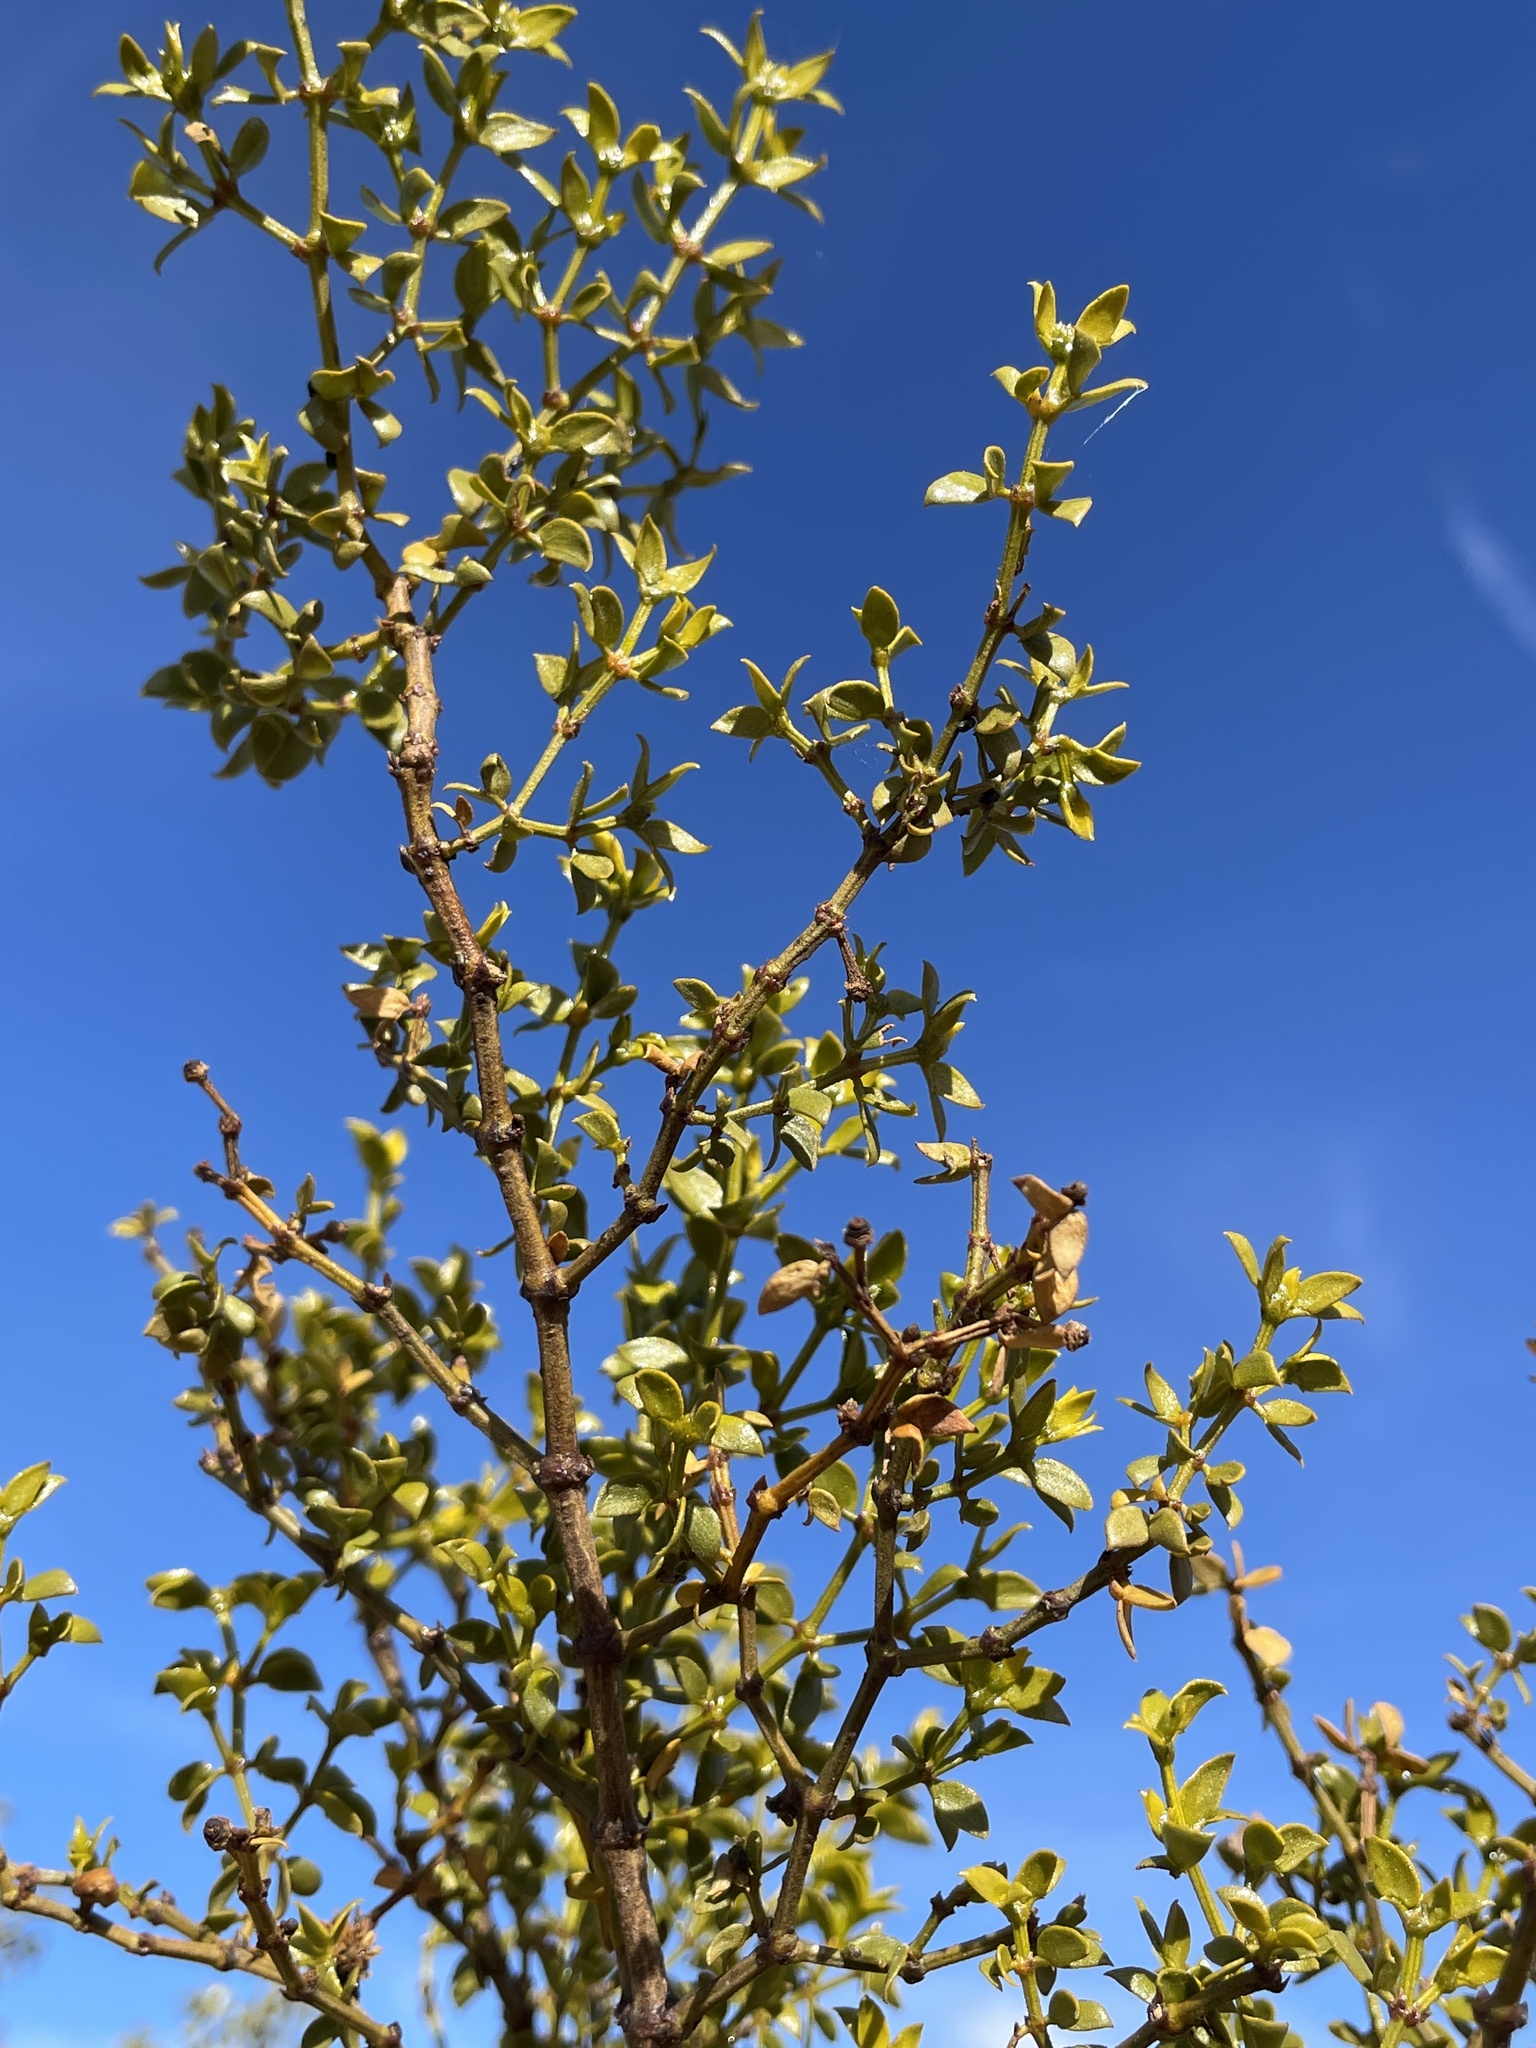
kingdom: Plantae
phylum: Tracheophyta
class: Magnoliopsida
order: Zygophyllales
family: Zygophyllaceae
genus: Larrea
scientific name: Larrea tridentata
